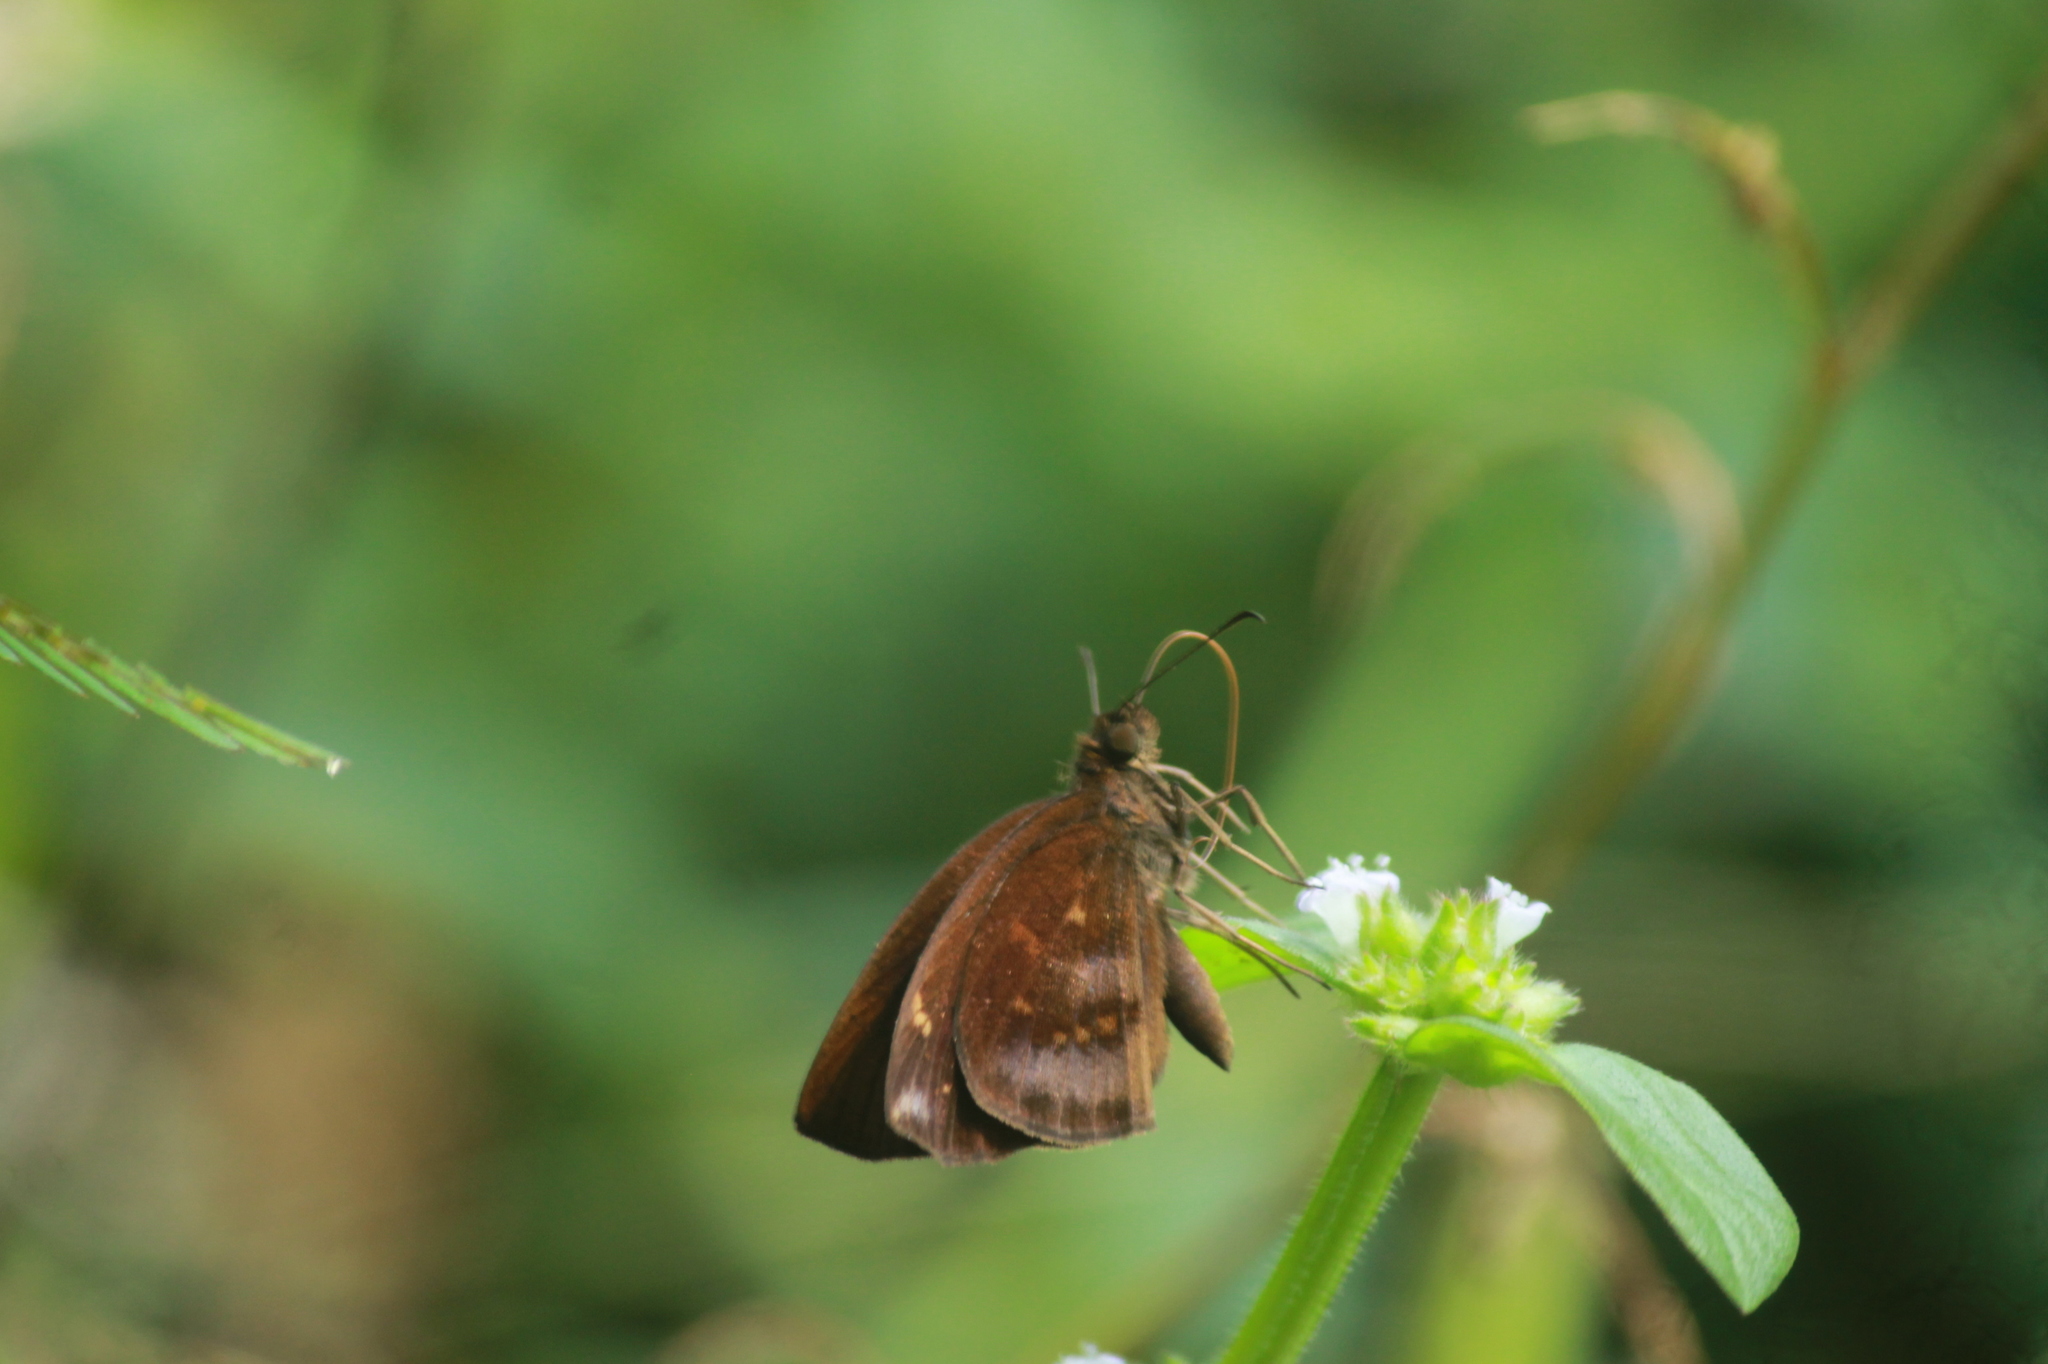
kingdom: Animalia
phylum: Arthropoda
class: Insecta
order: Lepidoptera
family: Hesperiidae
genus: Psolos
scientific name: Psolos fuligo
